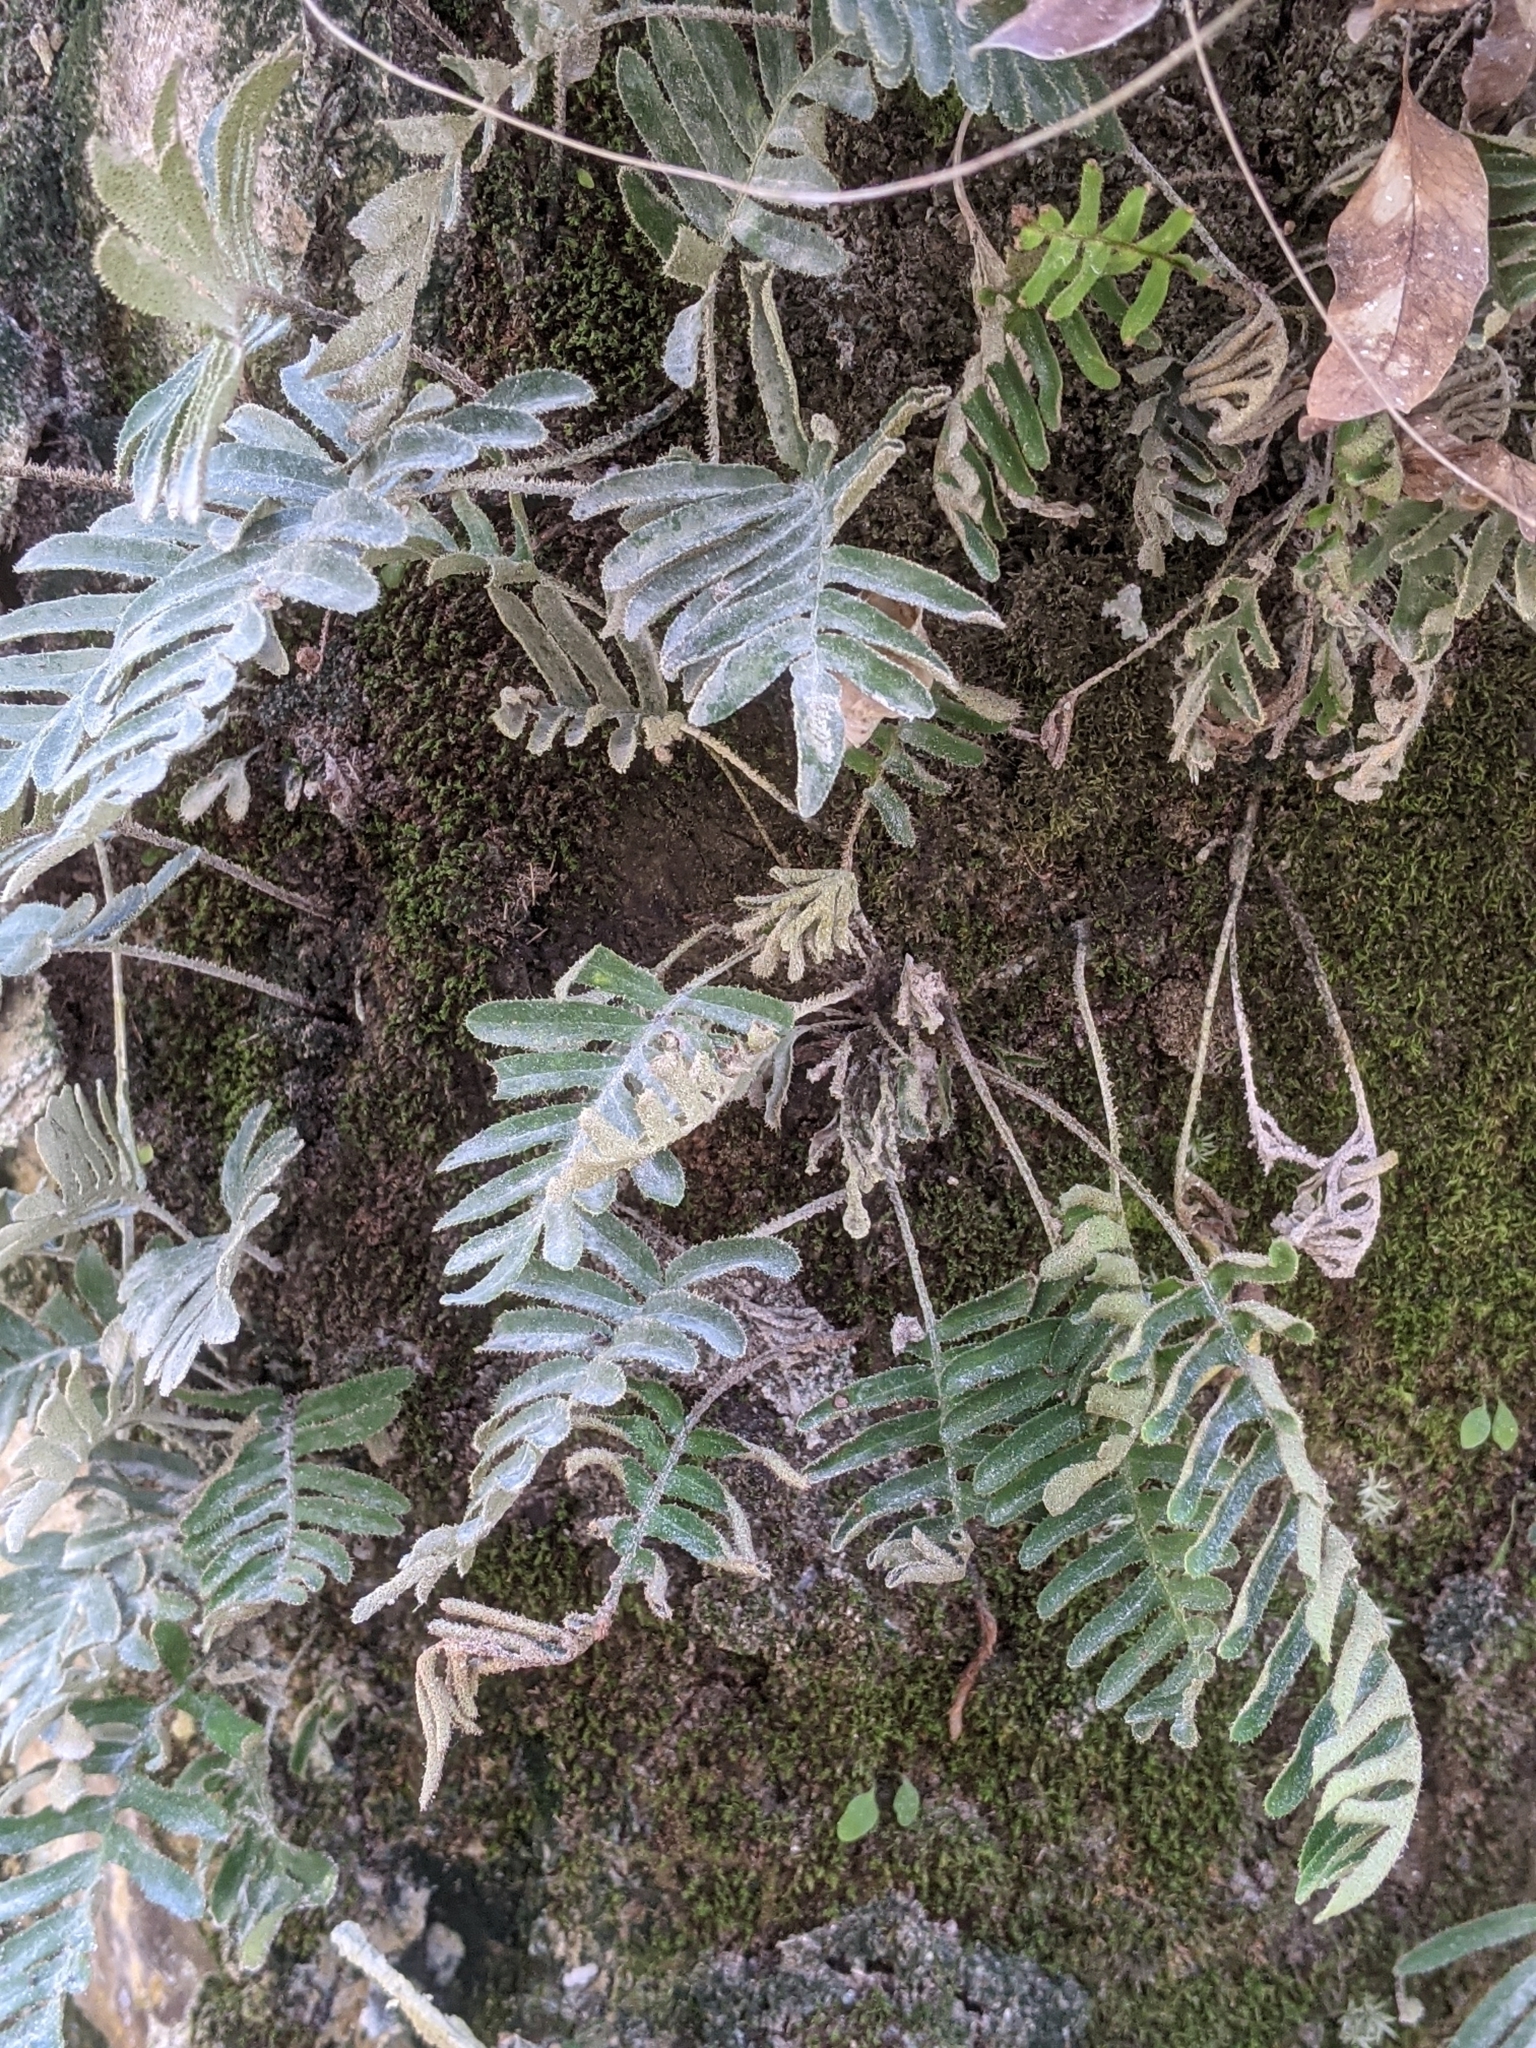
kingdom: Plantae
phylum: Tracheophyta
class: Polypodiopsida
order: Polypodiales
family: Polypodiaceae
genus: Pleopeltis
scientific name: Pleopeltis michauxiana
